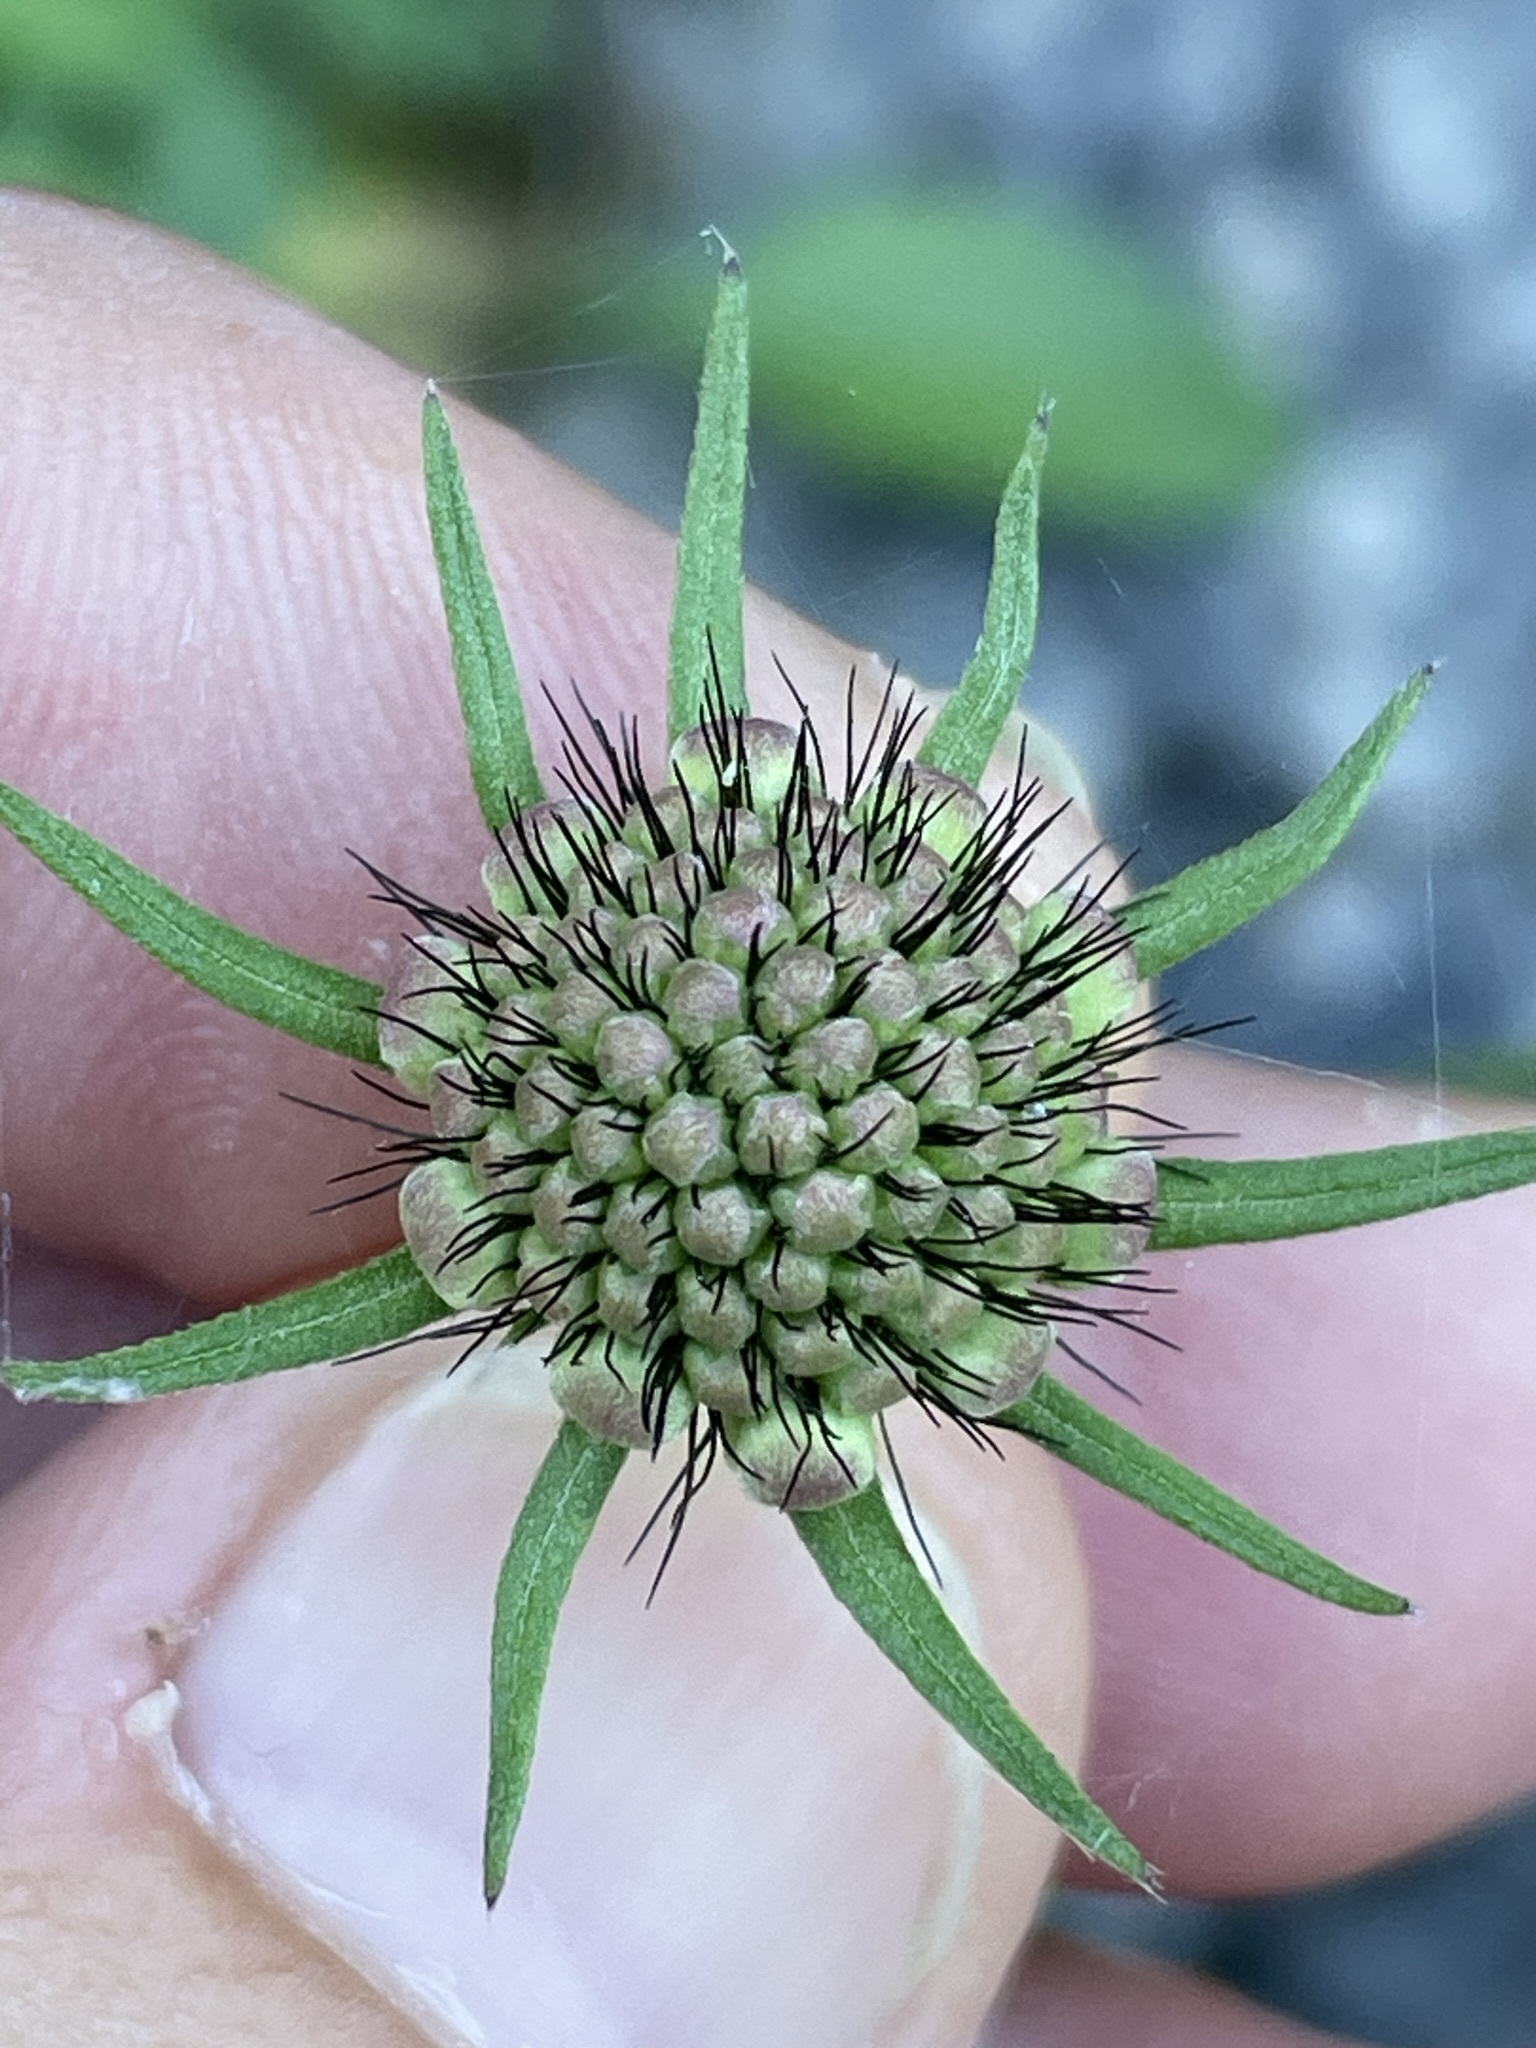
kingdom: Plantae
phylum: Tracheophyta
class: Magnoliopsida
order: Dipsacales
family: Caprifoliaceae
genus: Scabiosa
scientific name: Scabiosa lucida
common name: Shining scabious
